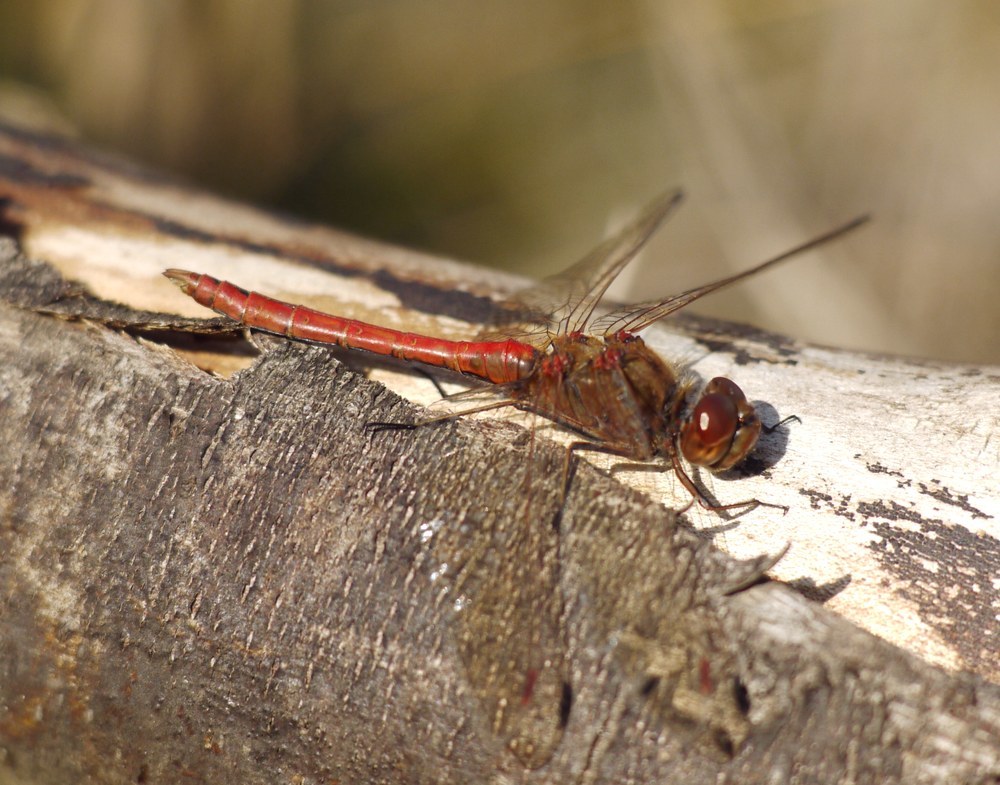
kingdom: Animalia
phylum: Arthropoda
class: Insecta
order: Odonata
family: Libellulidae
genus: Sympetrum
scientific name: Sympetrum striolatum
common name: Common darter
